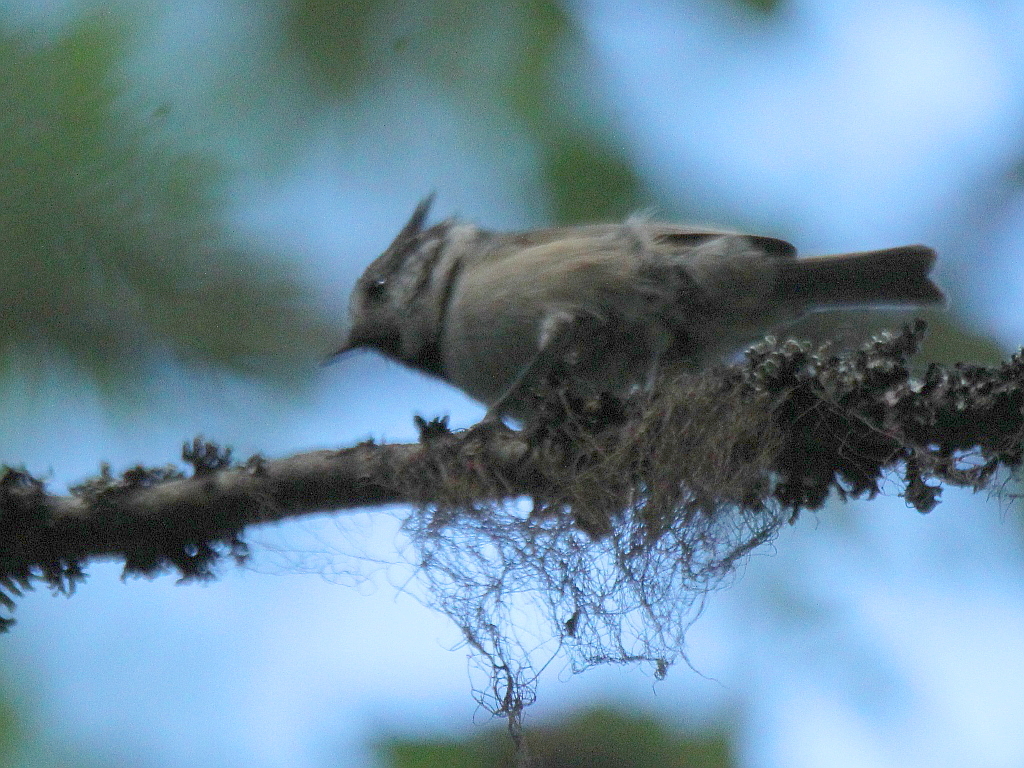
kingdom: Animalia
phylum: Chordata
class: Aves
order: Passeriformes
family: Paridae
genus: Lophophanes
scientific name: Lophophanes cristatus
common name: European crested tit
